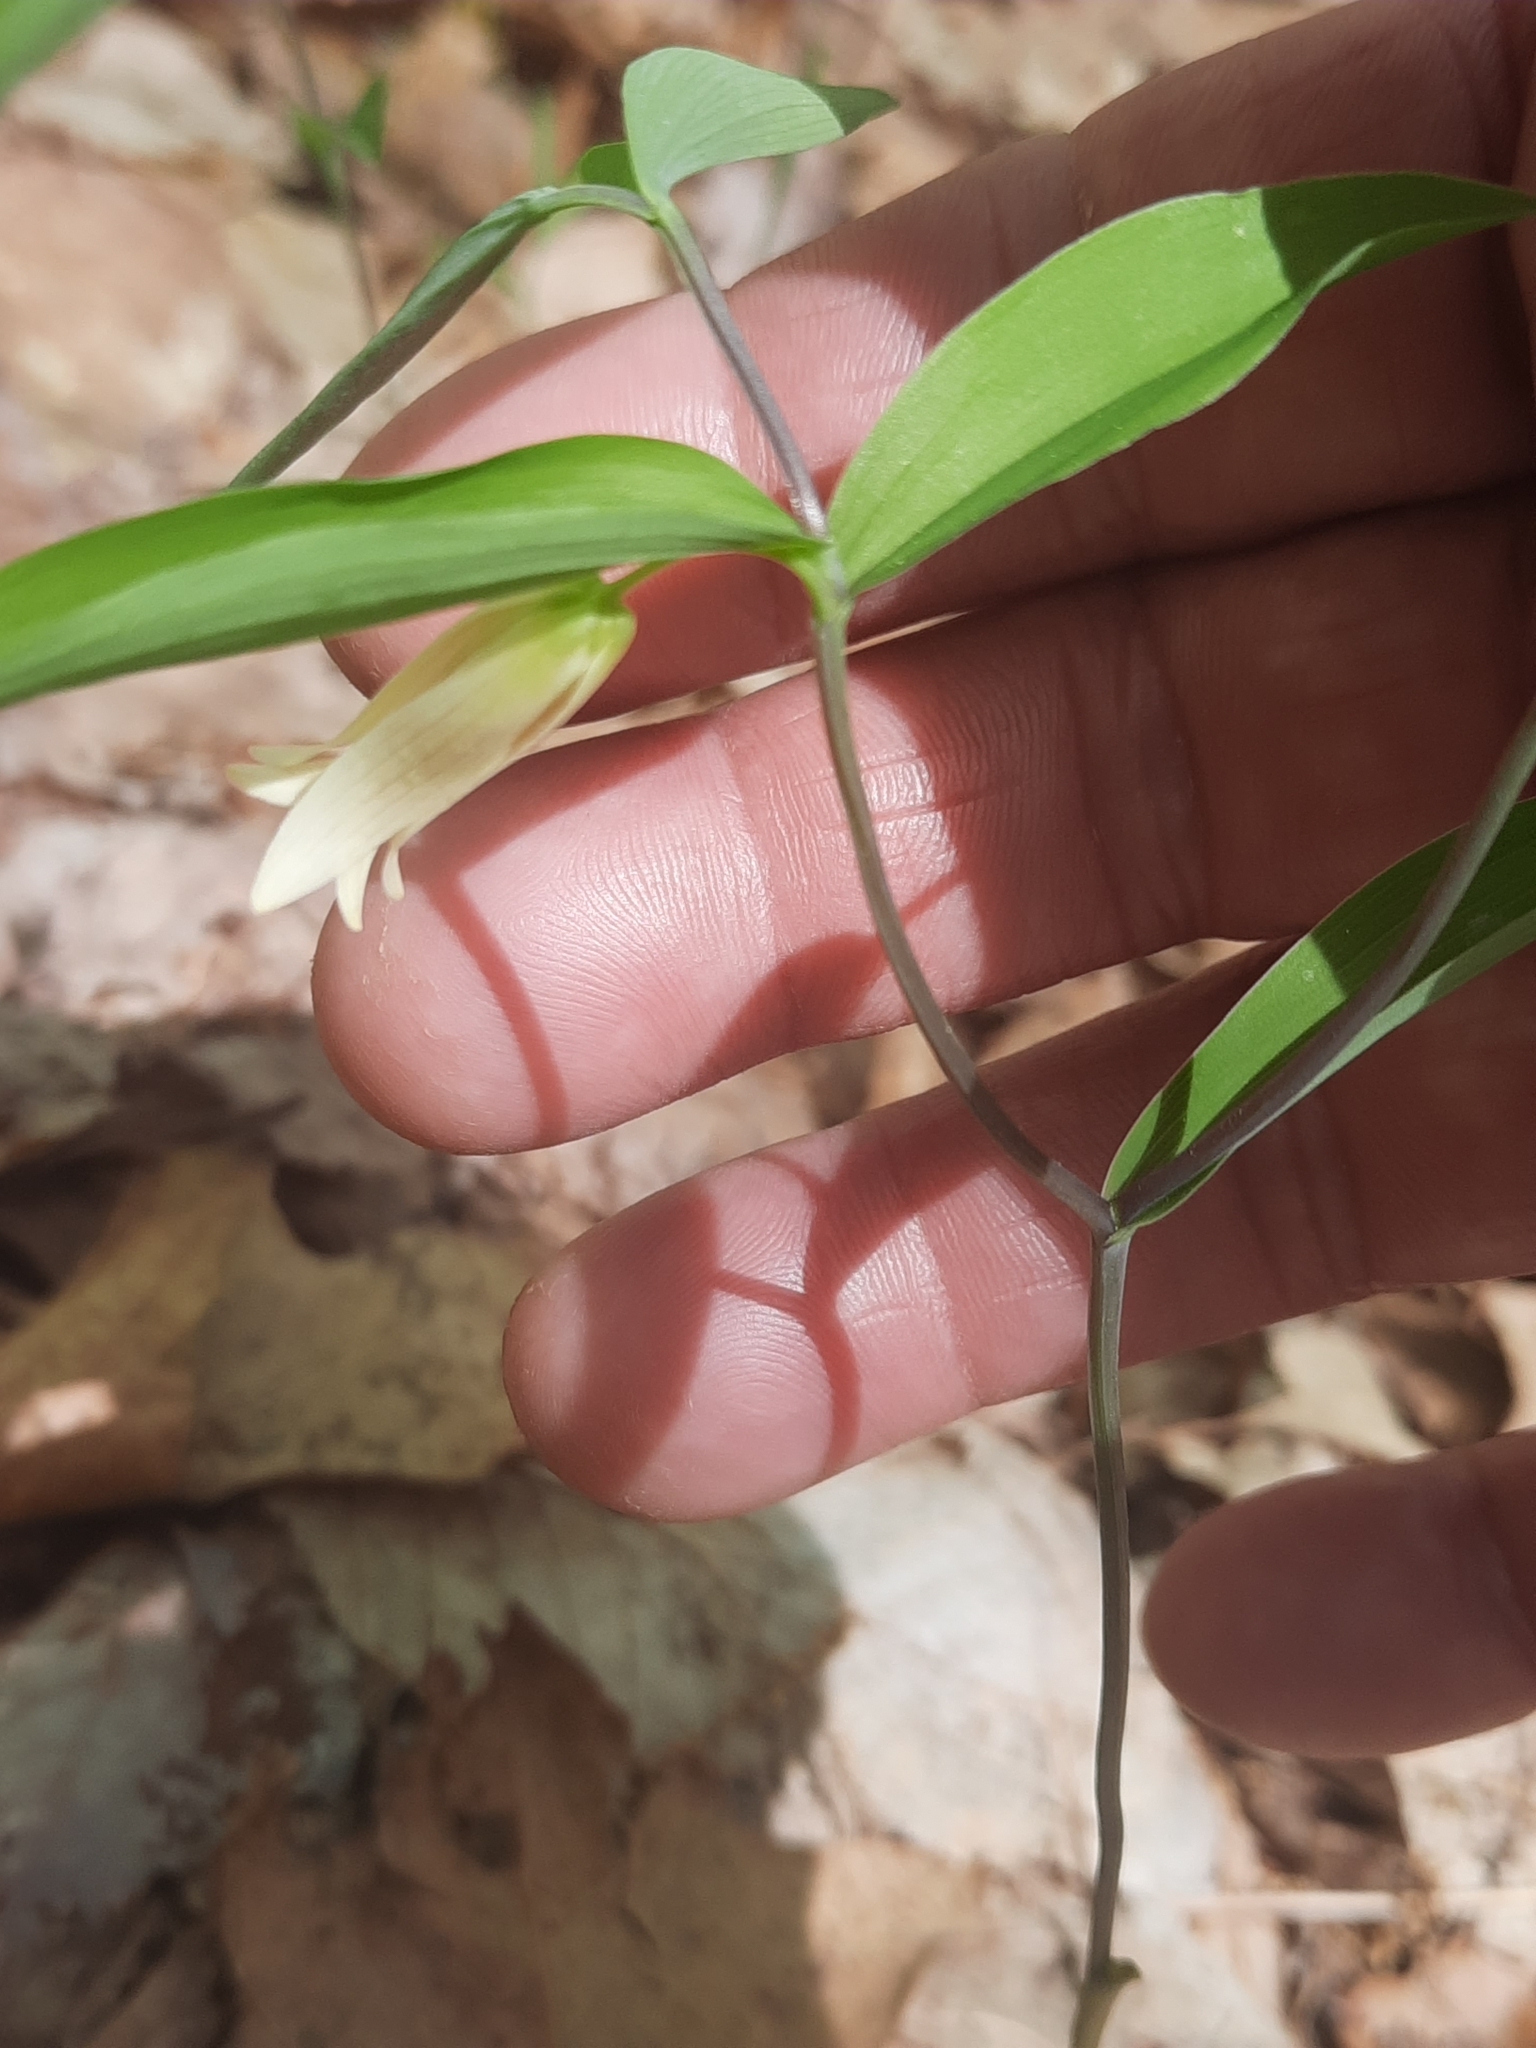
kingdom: Plantae
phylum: Tracheophyta
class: Liliopsida
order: Liliales
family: Colchicaceae
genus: Uvularia
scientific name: Uvularia sessilifolia
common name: Straw-lily
